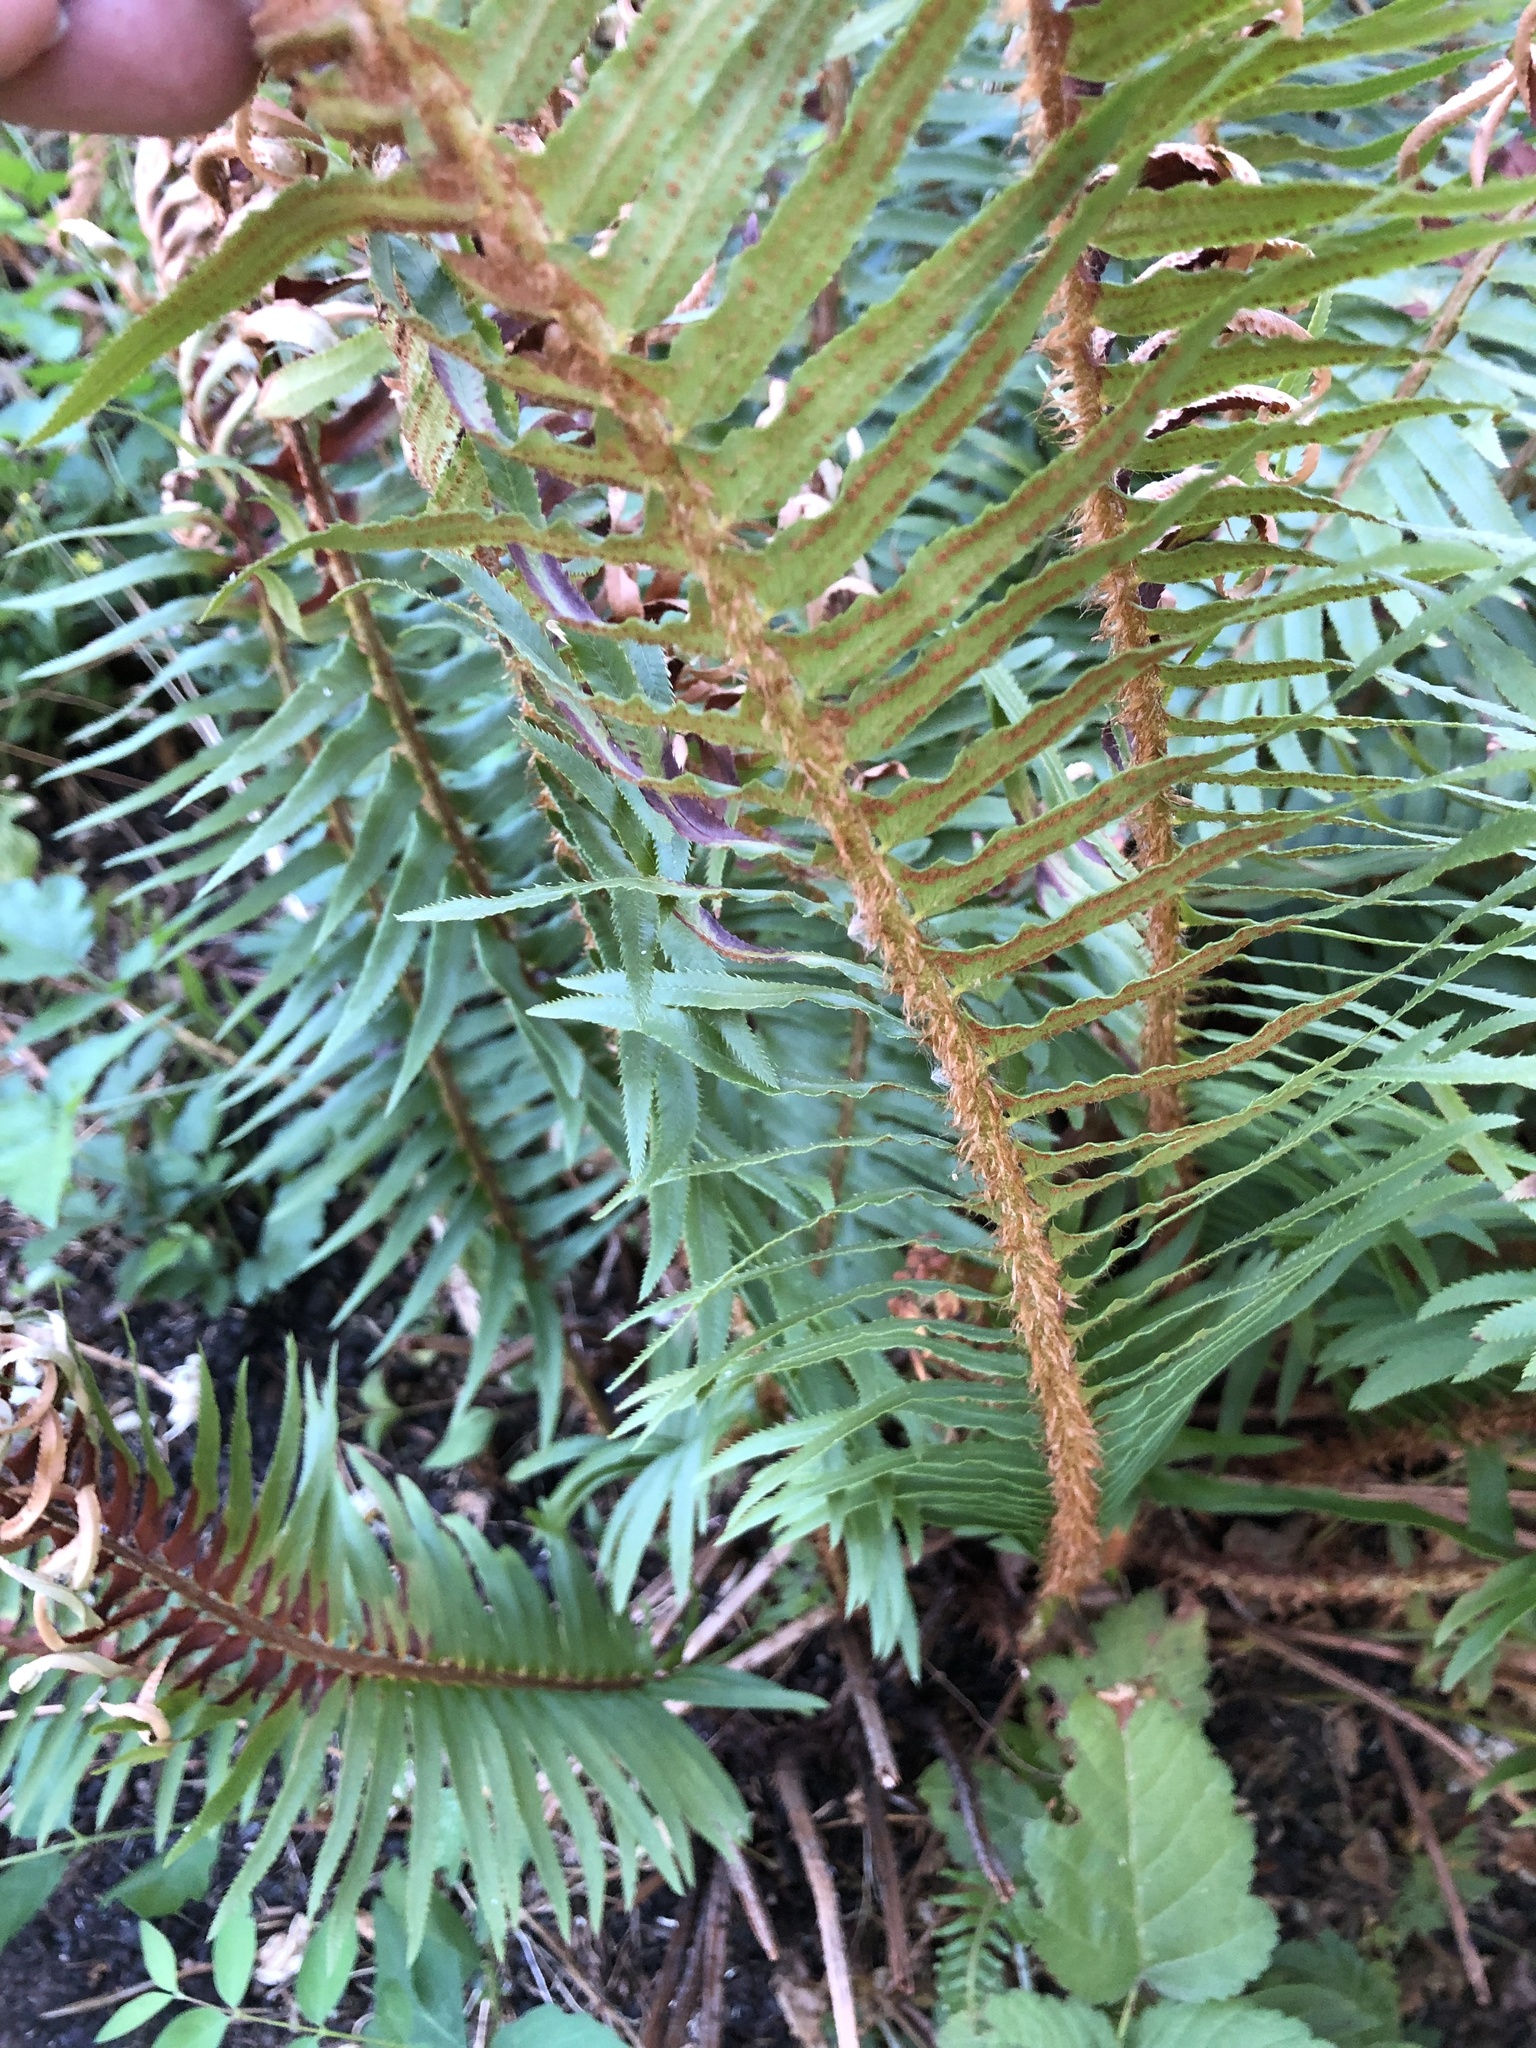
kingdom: Plantae
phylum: Tracheophyta
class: Polypodiopsida
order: Polypodiales
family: Dryopteridaceae
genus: Polystichum
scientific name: Polystichum munitum
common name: Western sword-fern
